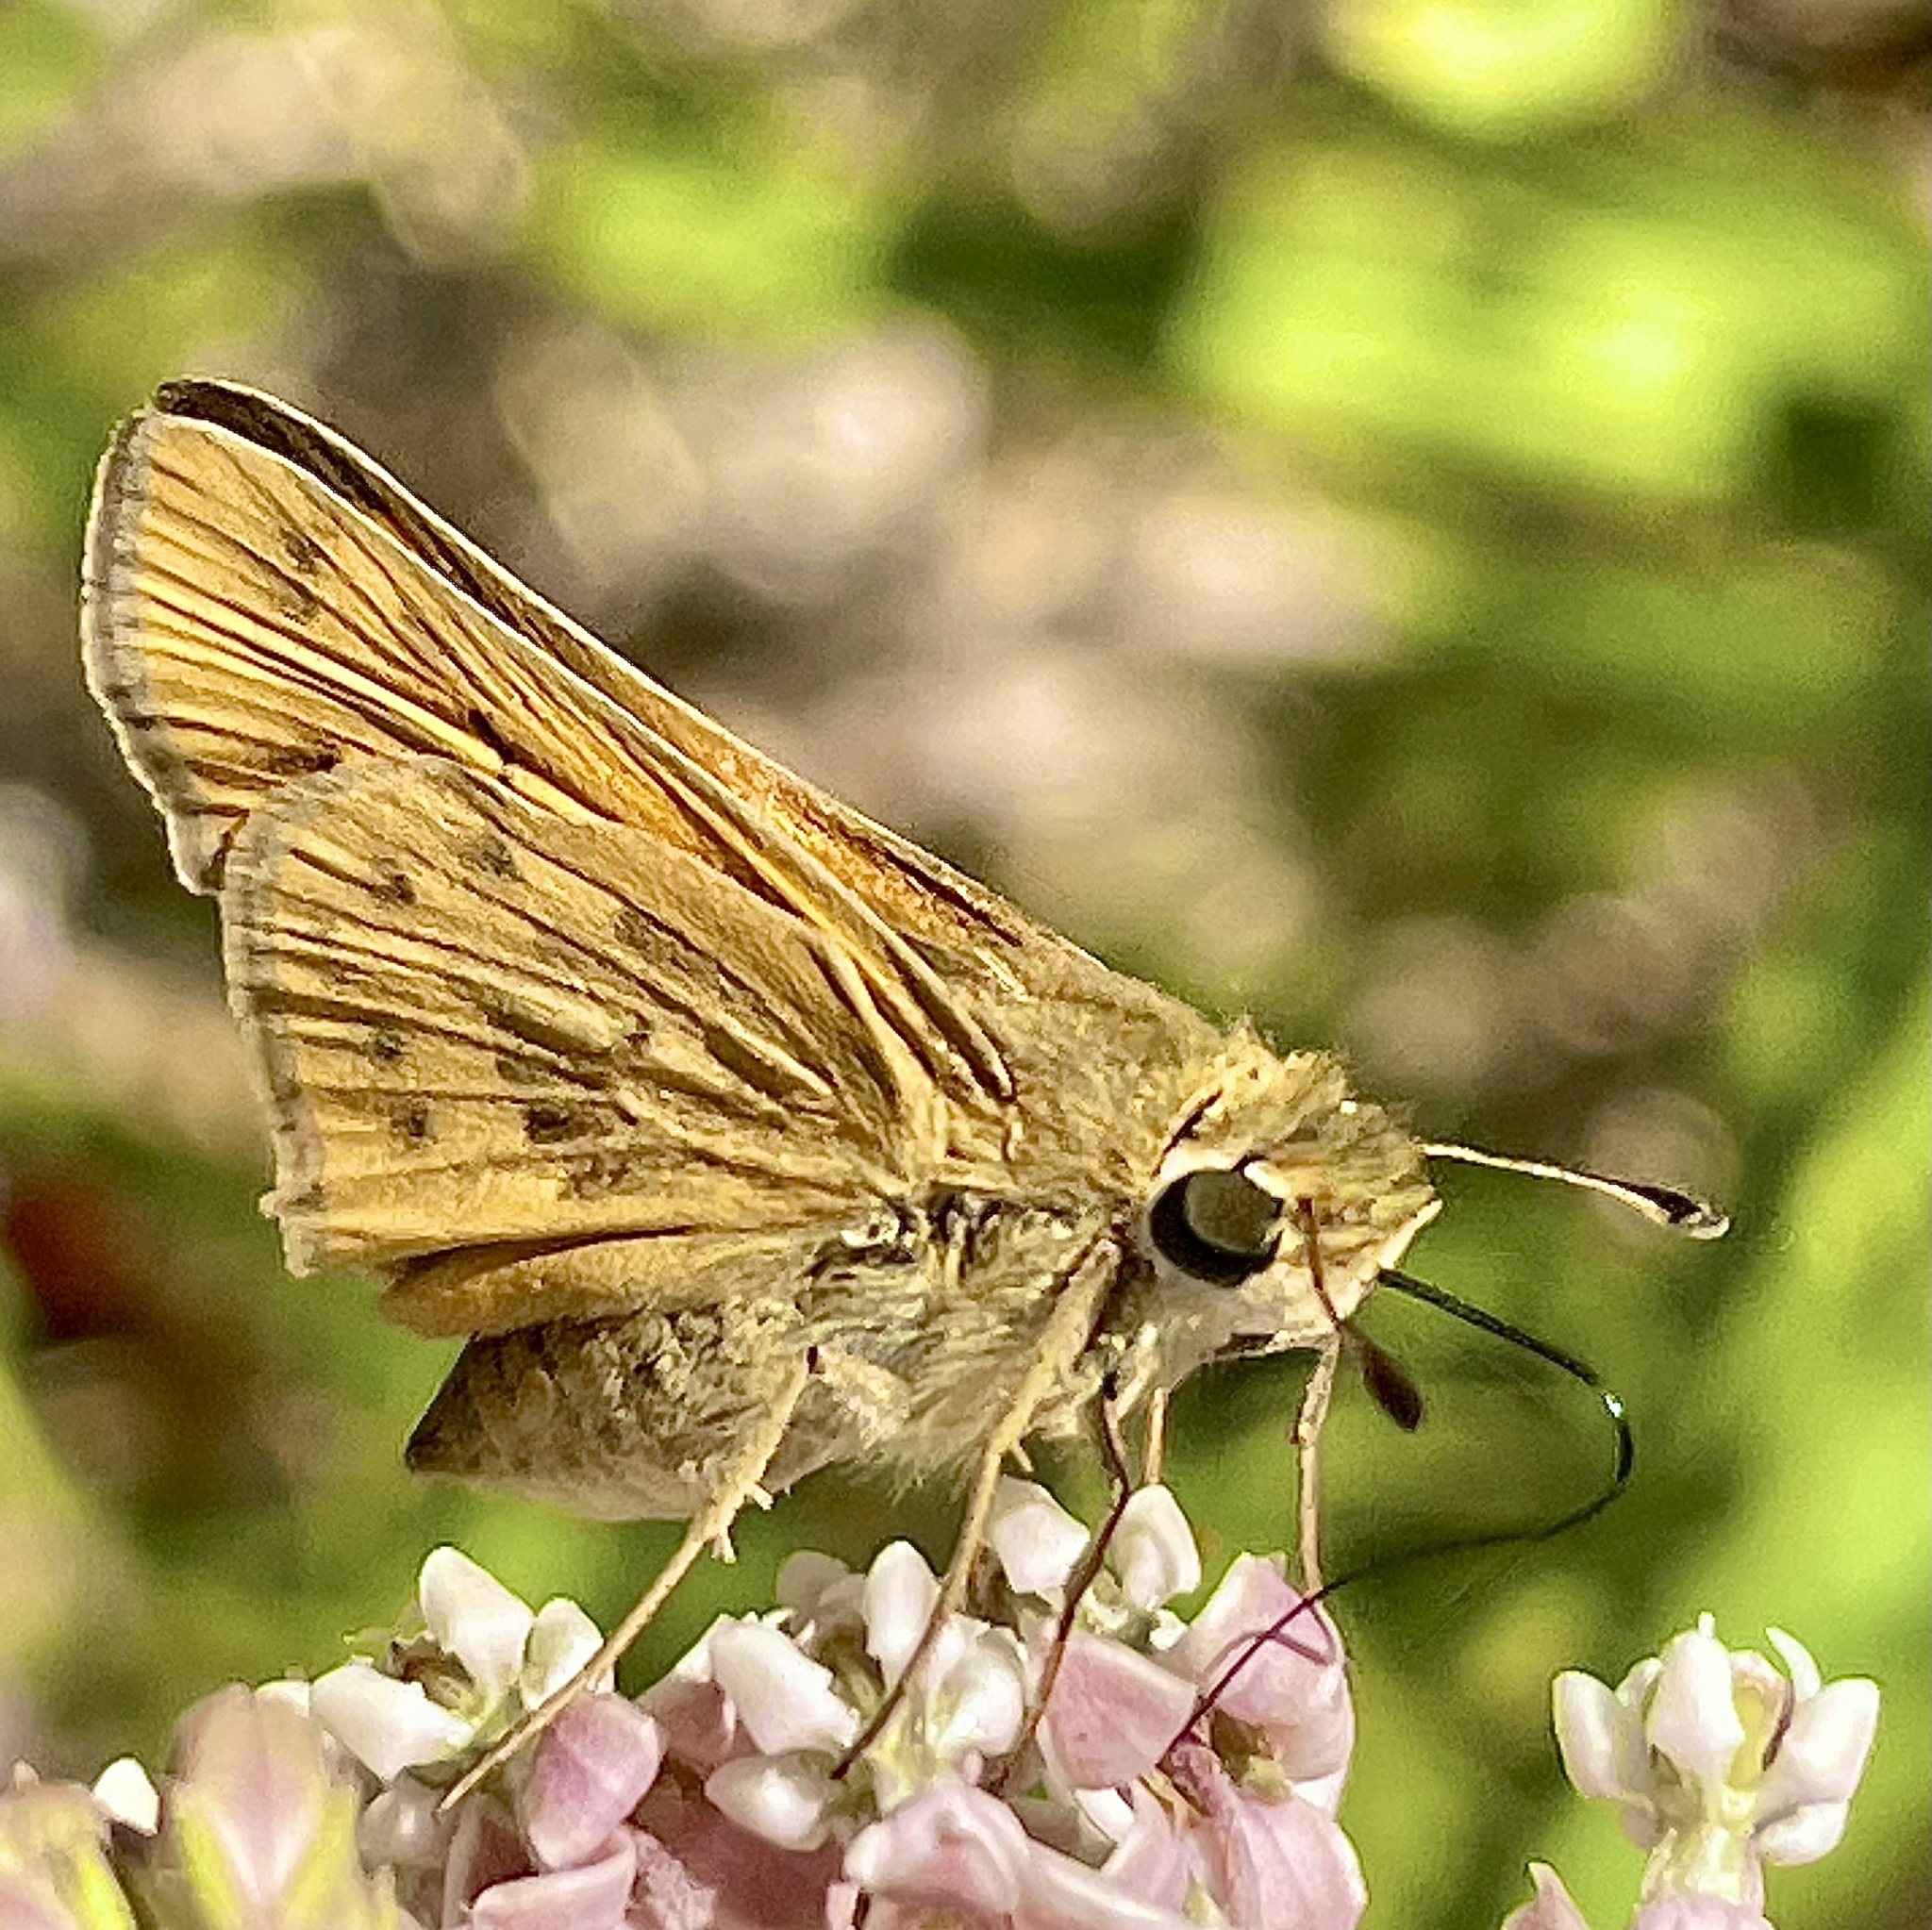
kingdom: Animalia
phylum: Arthropoda
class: Insecta
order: Lepidoptera
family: Hesperiidae
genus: Hylephila
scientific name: Hylephila phyleus
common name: Fiery skipper
